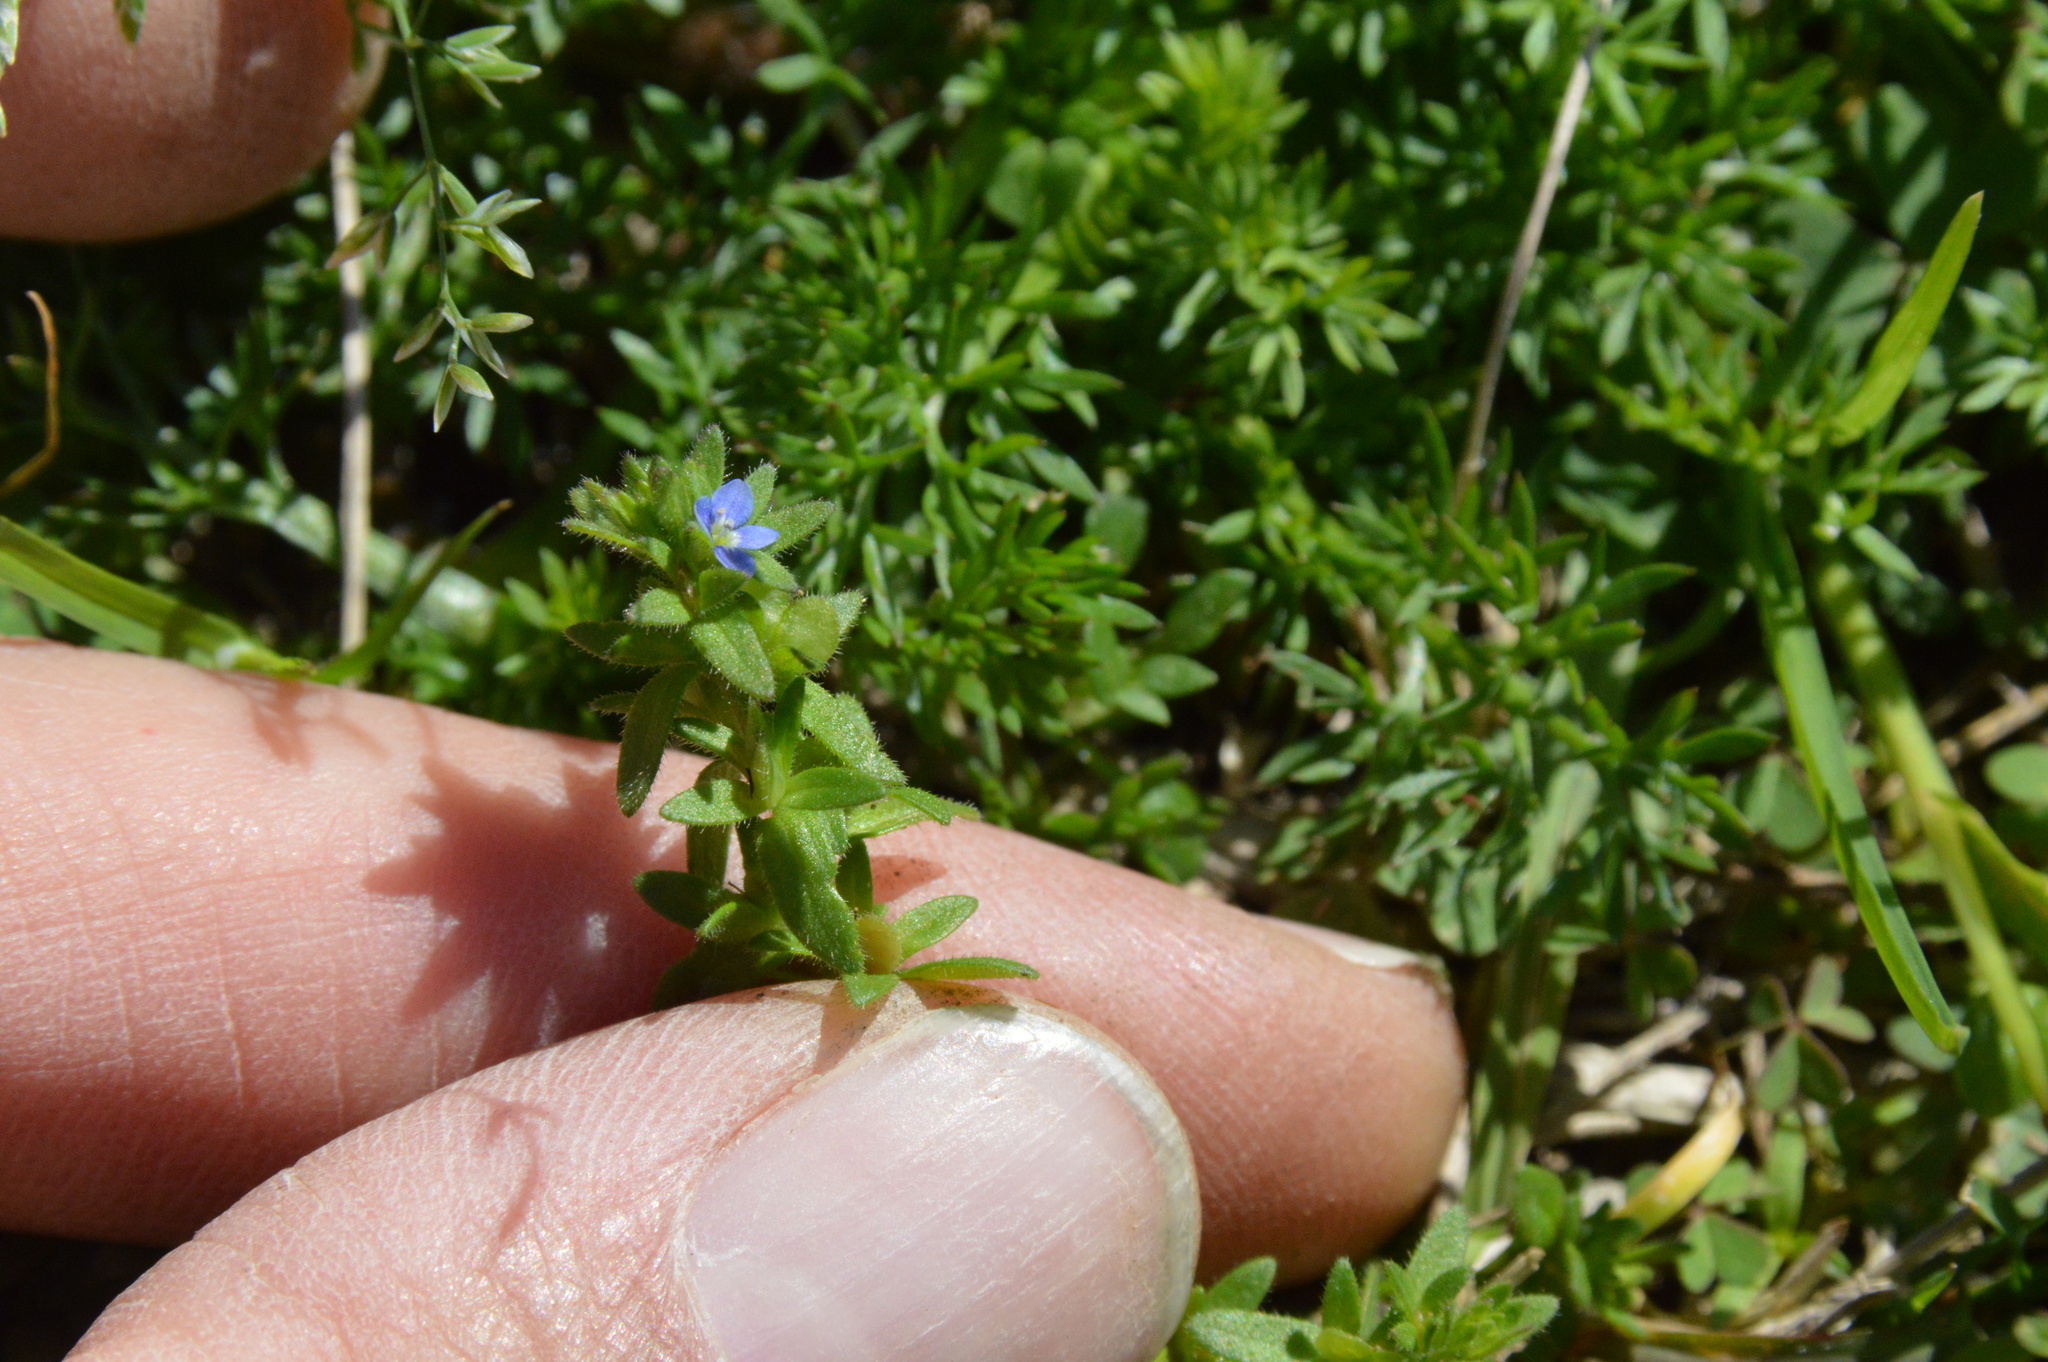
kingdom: Plantae
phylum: Tracheophyta
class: Magnoliopsida
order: Lamiales
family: Plantaginaceae
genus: Veronica
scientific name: Veronica arvensis
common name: Corn speedwell
